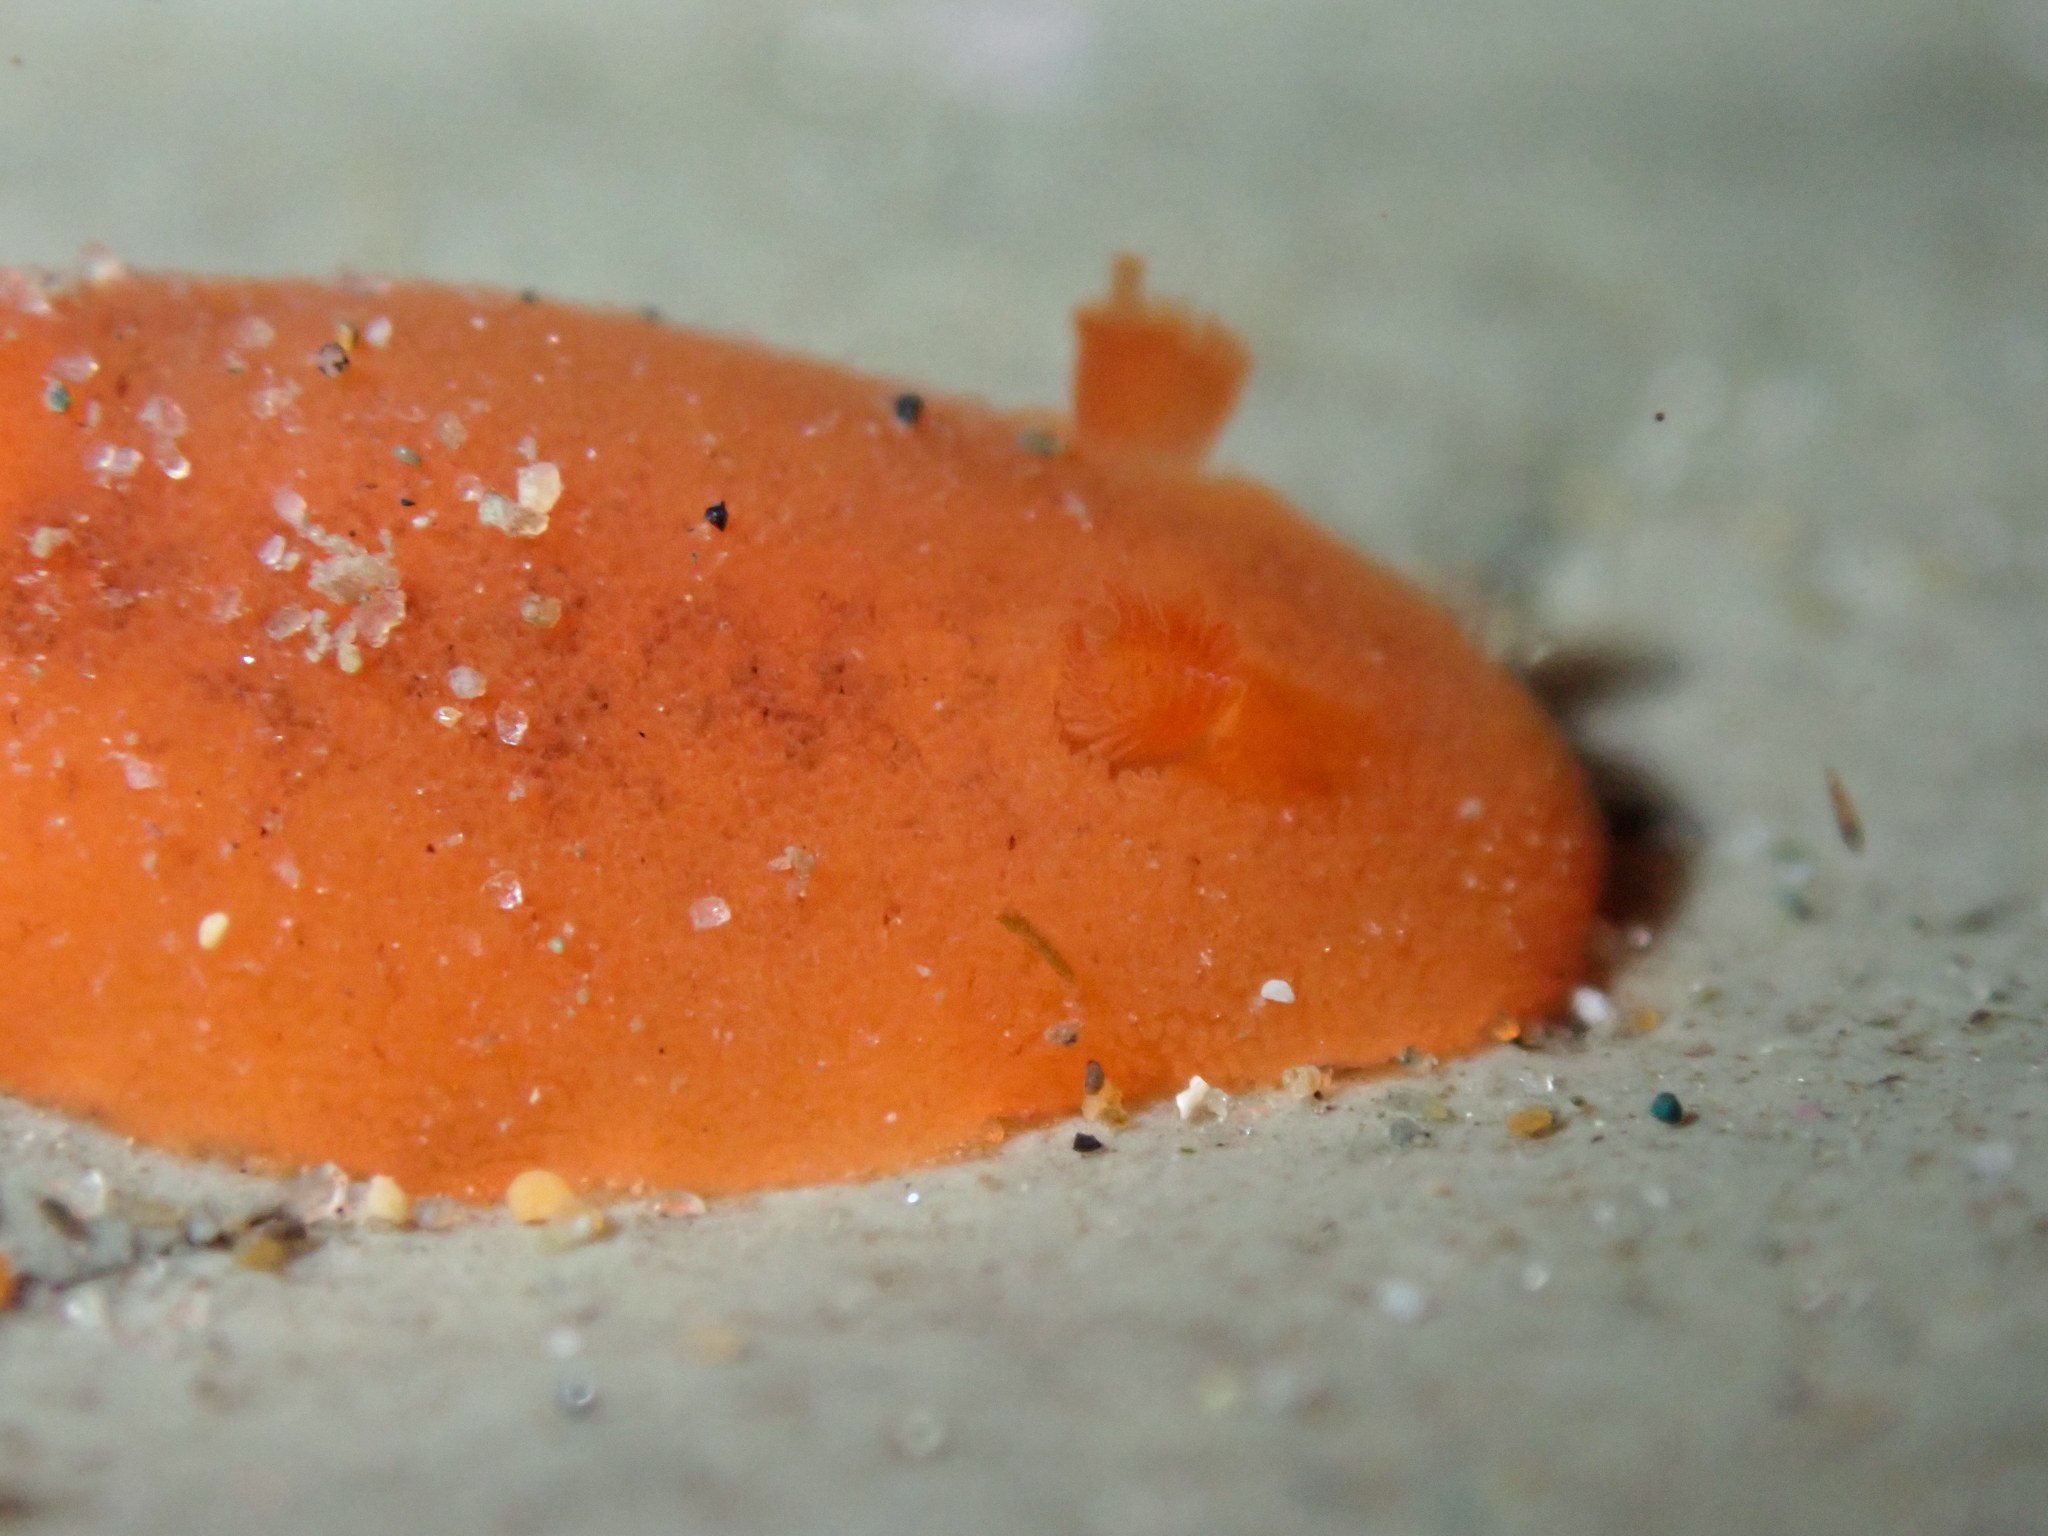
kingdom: Animalia
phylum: Mollusca
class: Gastropoda
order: Nudibranchia
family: Discodorididae
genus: Rostanga
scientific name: Rostanga pulchra
